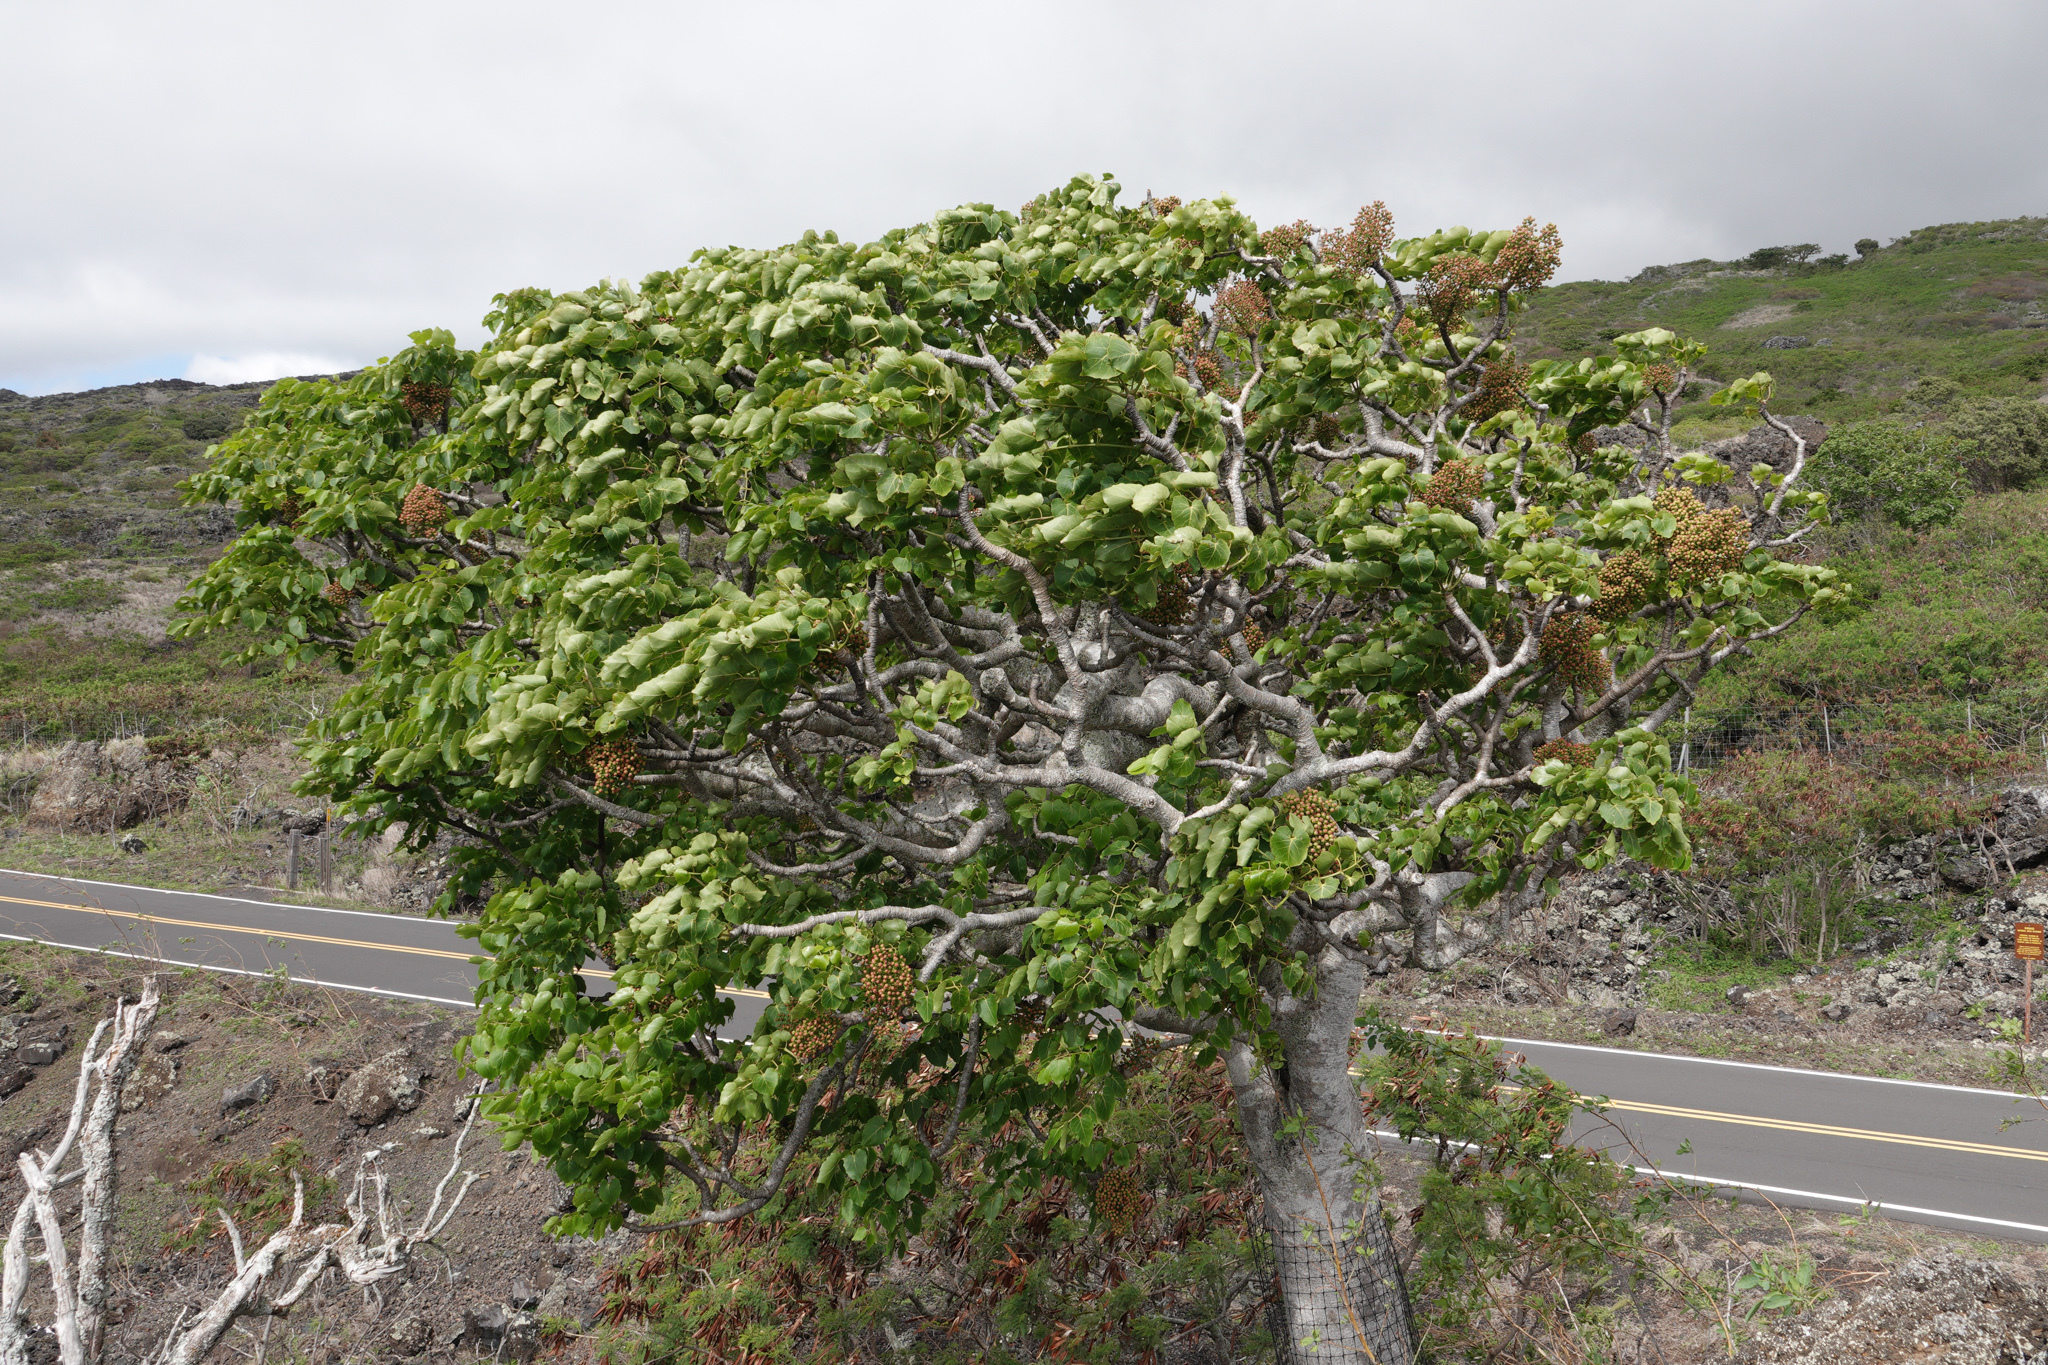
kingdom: Plantae
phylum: Tracheophyta
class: Magnoliopsida
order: Apiales
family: Araliaceae
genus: Polyscias
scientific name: Polyscias sandwicensis
